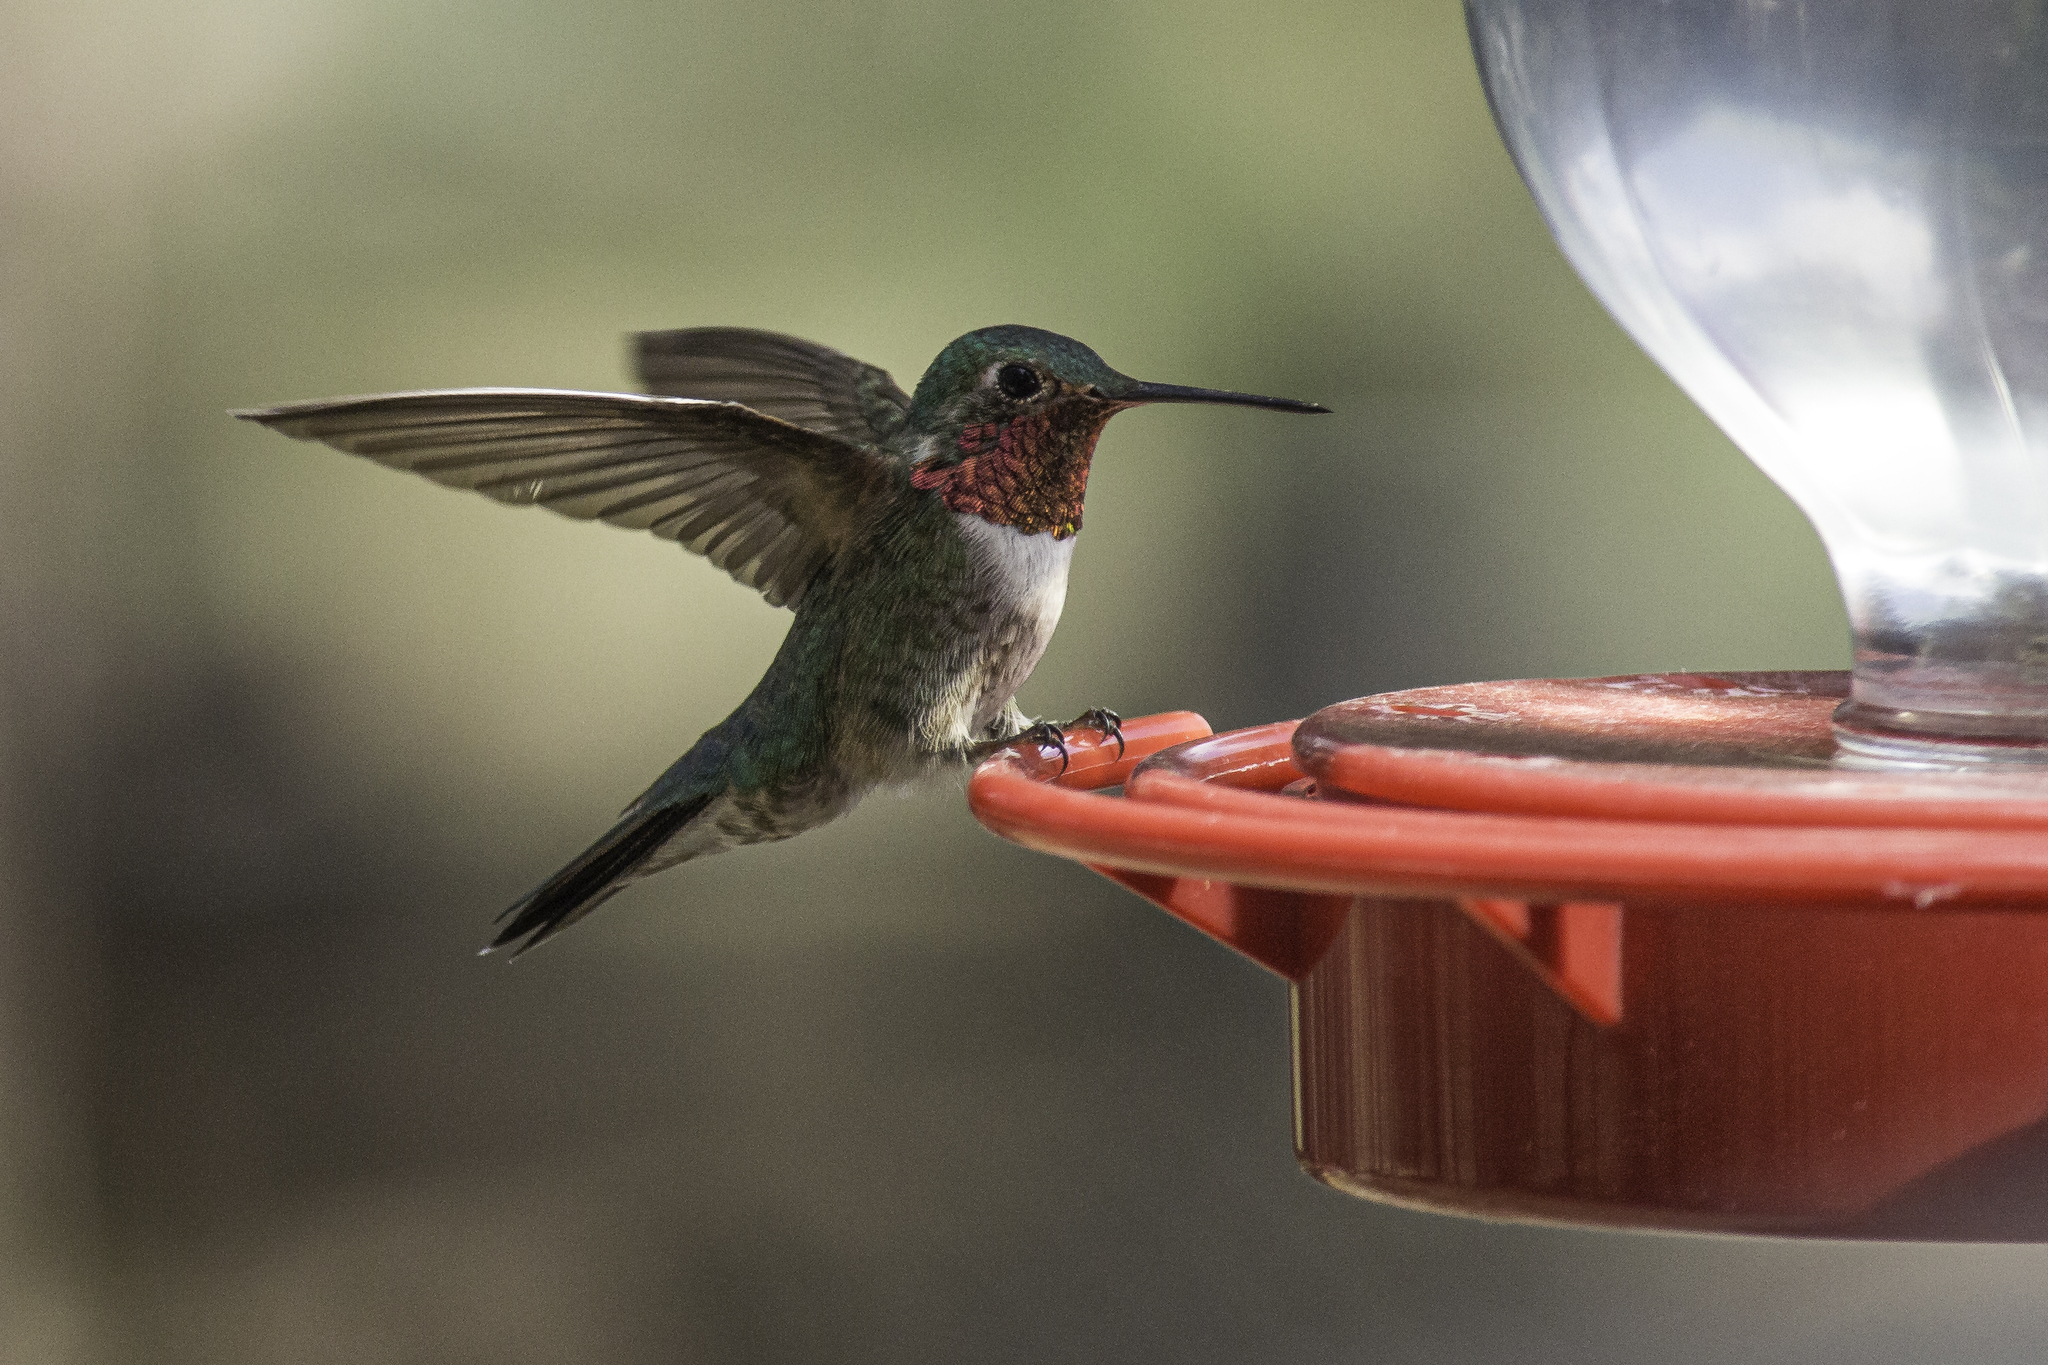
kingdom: Animalia
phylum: Chordata
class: Aves
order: Apodiformes
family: Trochilidae
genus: Selasphorus
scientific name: Selasphorus platycercus
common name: Broad-tailed hummingbird
